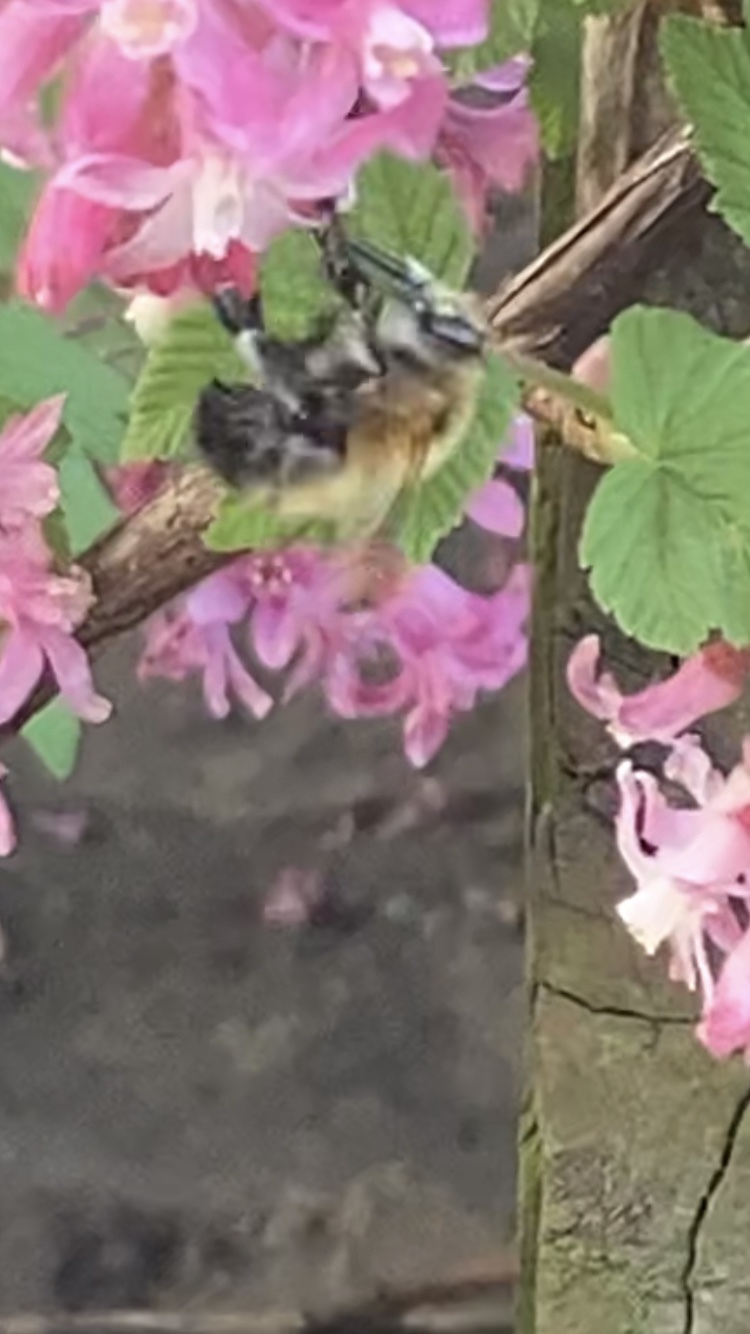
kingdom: Animalia
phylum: Arthropoda
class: Insecta
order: Hymenoptera
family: Apidae
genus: Anthophora
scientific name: Anthophora plumipes
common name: Hairy-footed flower bee
